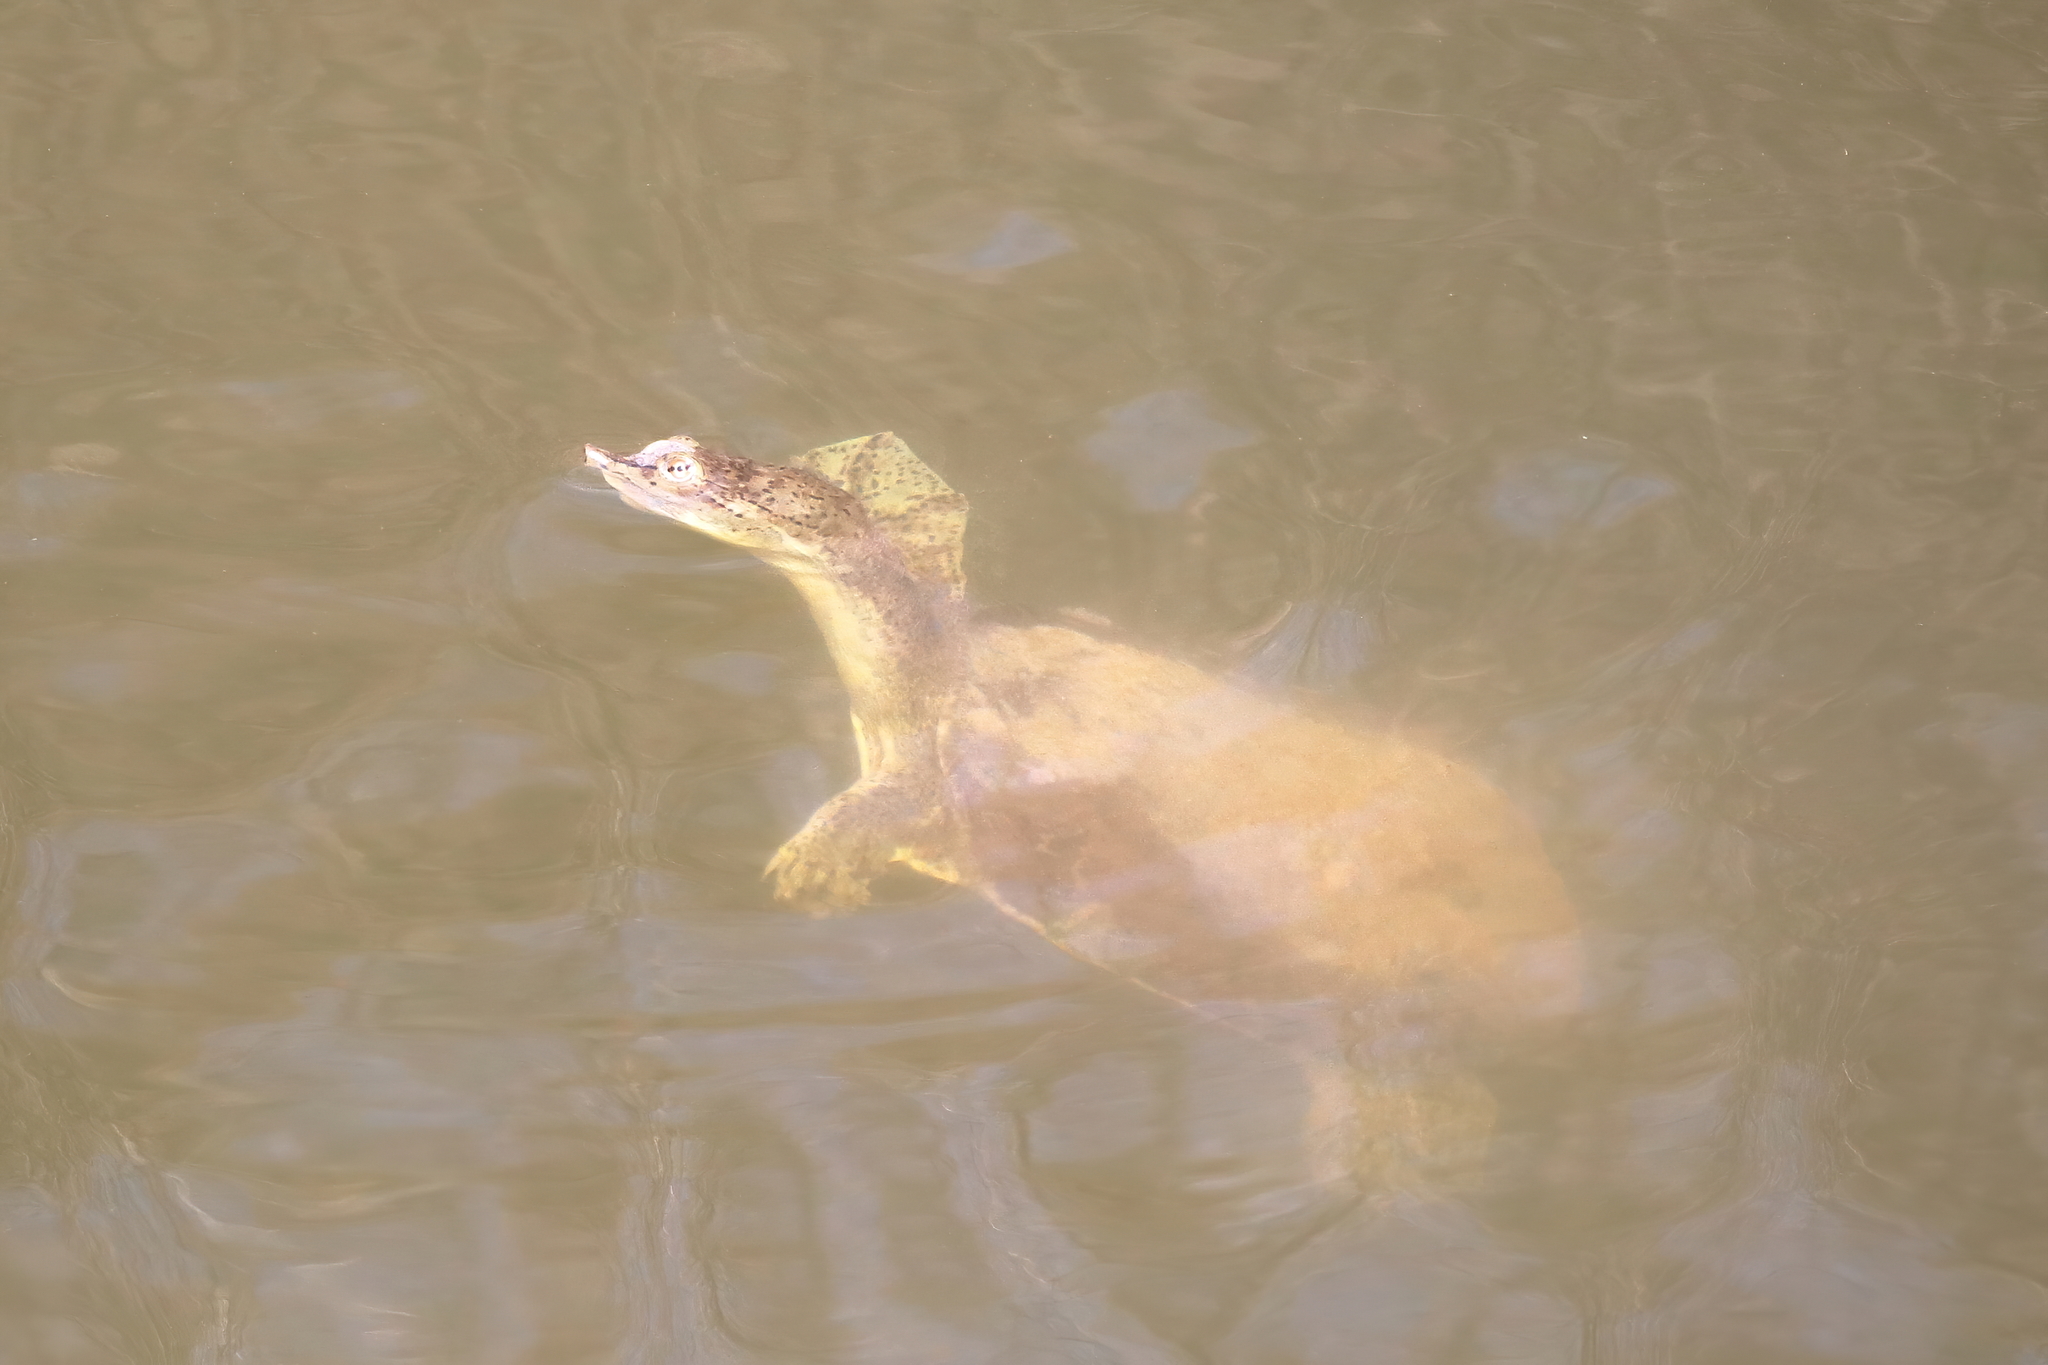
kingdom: Animalia
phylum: Chordata
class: Testudines
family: Trionychidae
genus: Apalone
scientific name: Apalone spinifera
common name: Spiny softshell turtle
